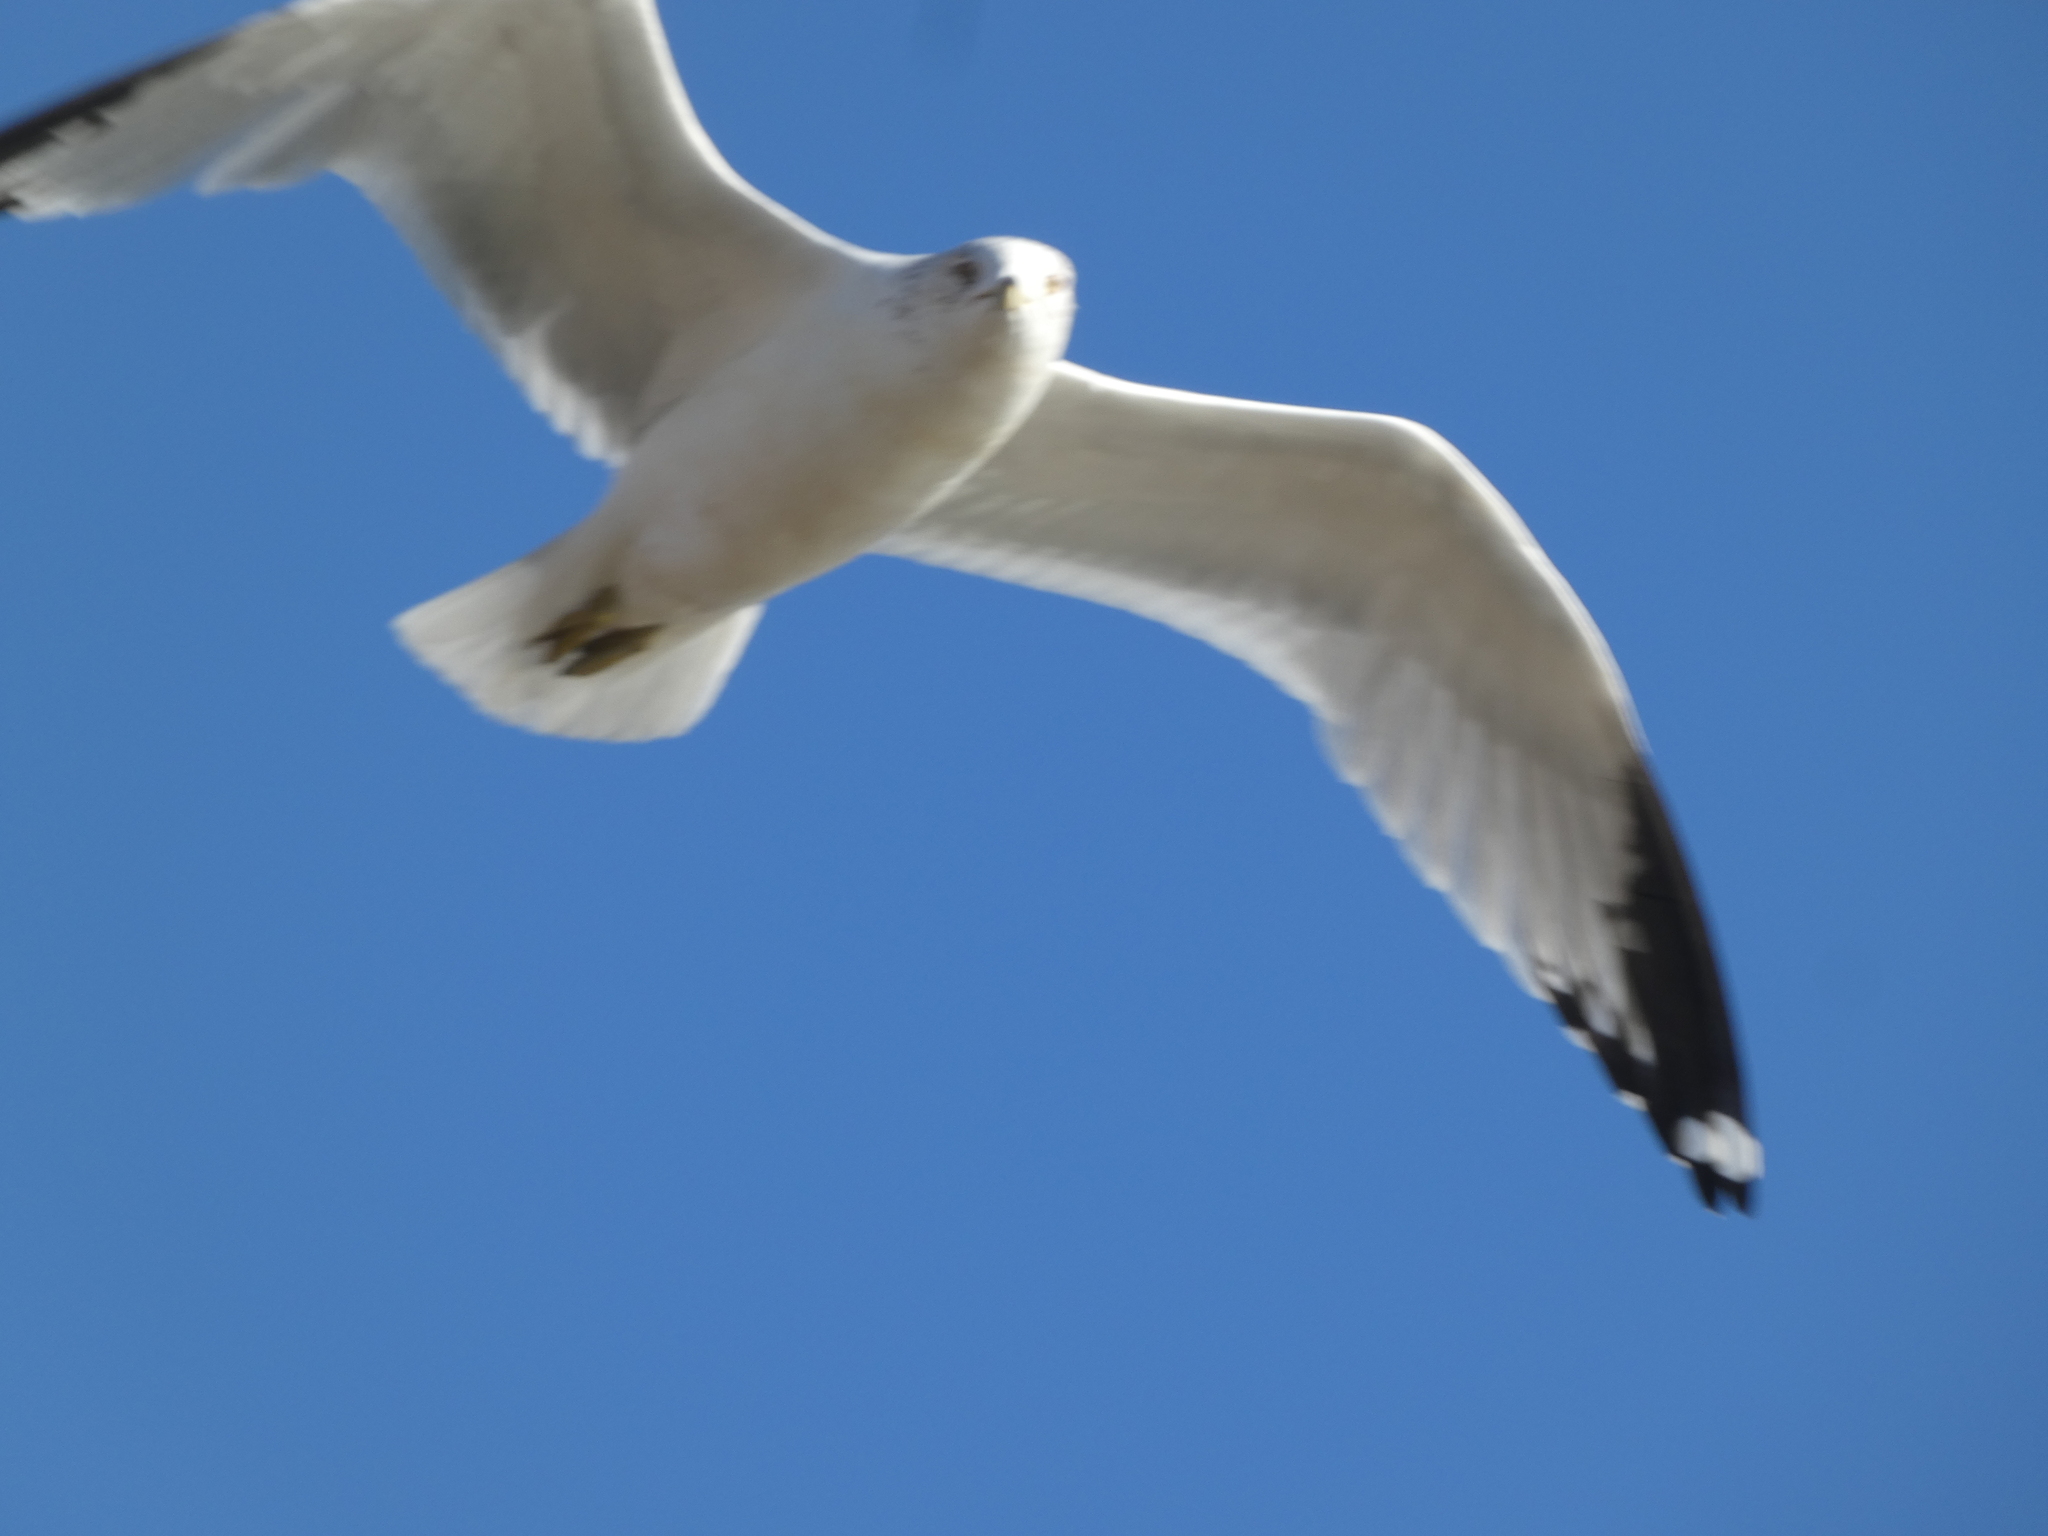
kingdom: Animalia
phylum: Chordata
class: Aves
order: Charadriiformes
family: Laridae
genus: Larus
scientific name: Larus delawarensis
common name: Ring-billed gull
